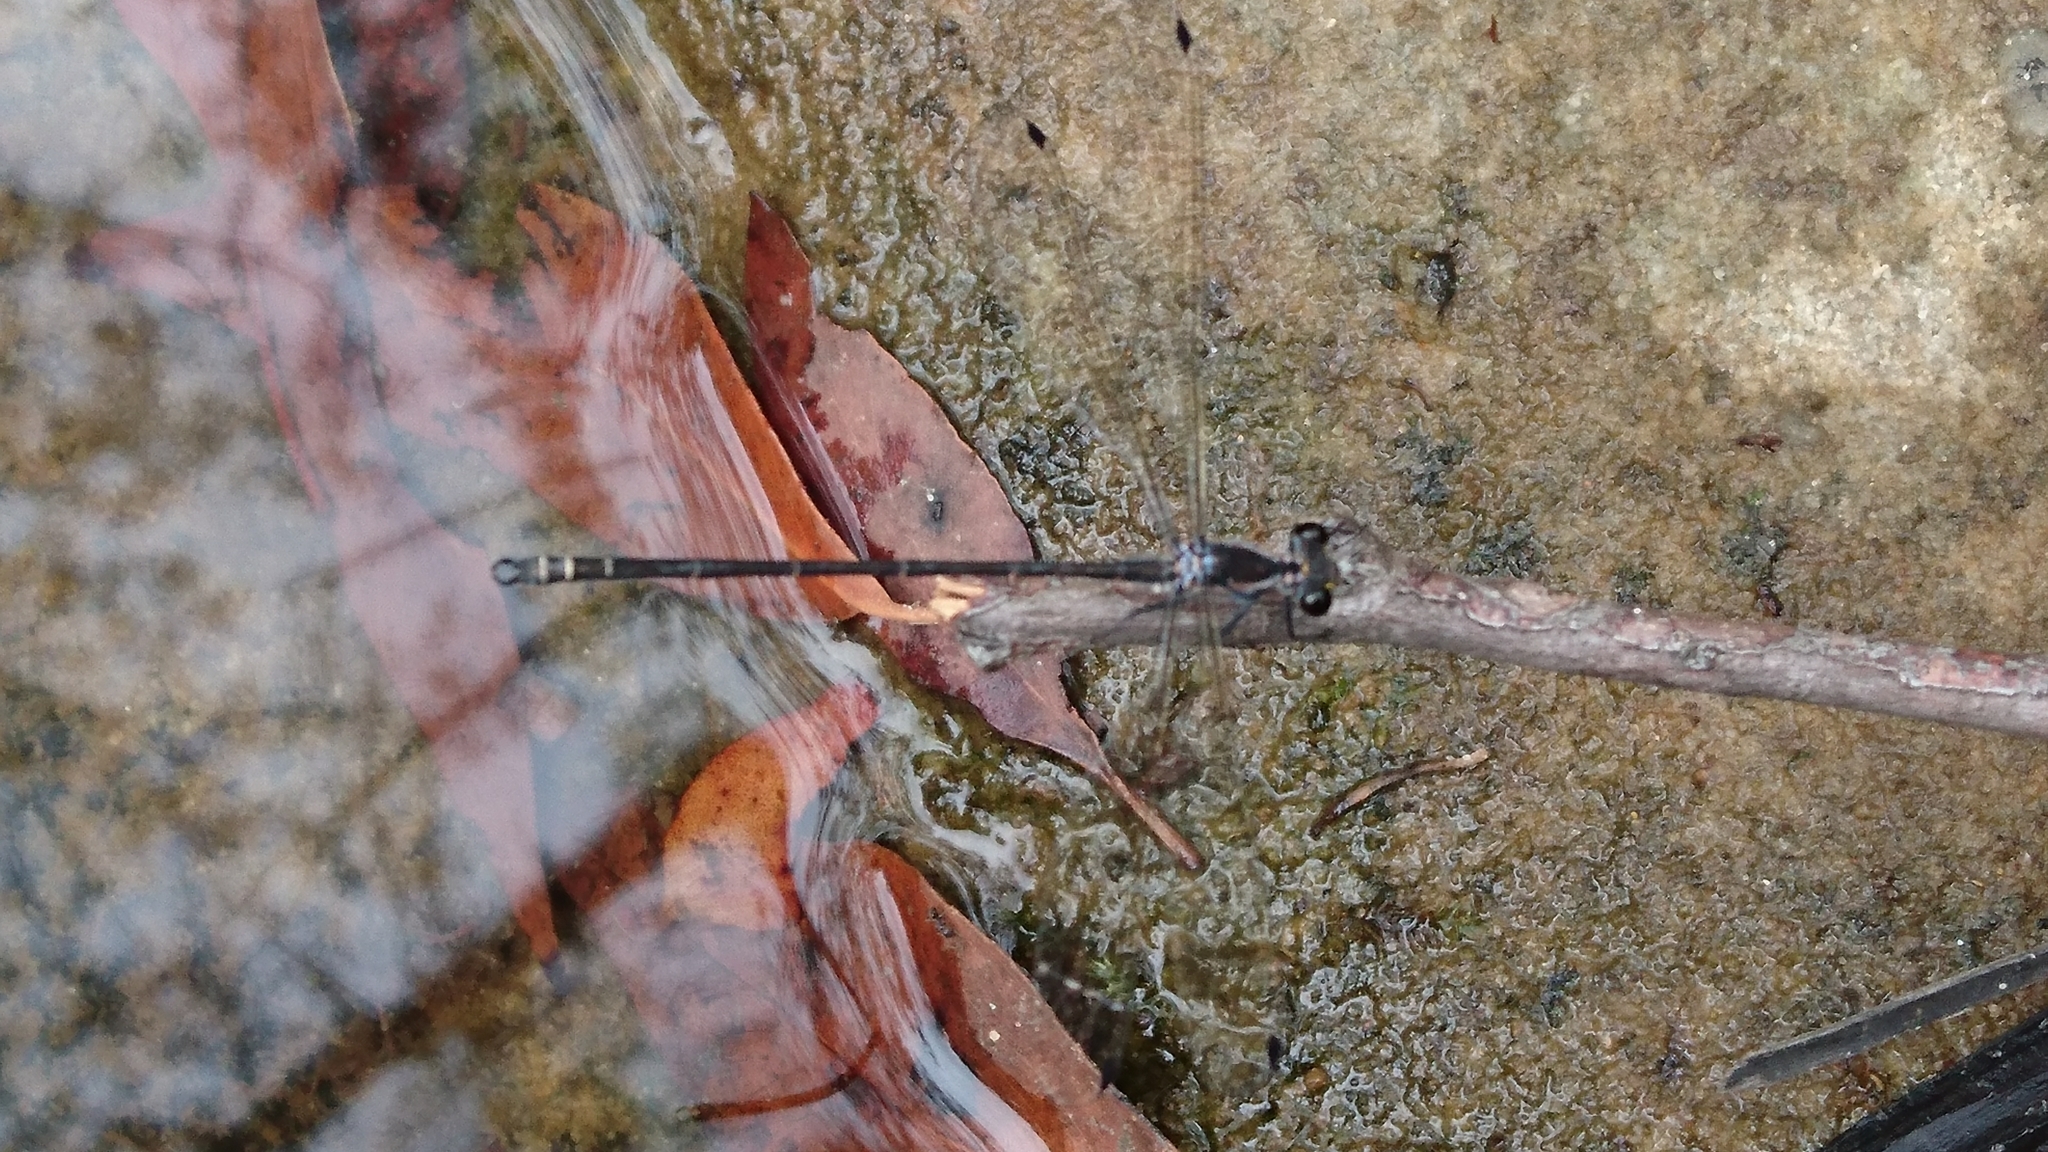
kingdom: Animalia
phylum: Arthropoda
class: Insecta
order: Odonata
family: Argiolestidae
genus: Austroargiolestes
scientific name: Austroargiolestes icteromelas
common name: Common flatwing
